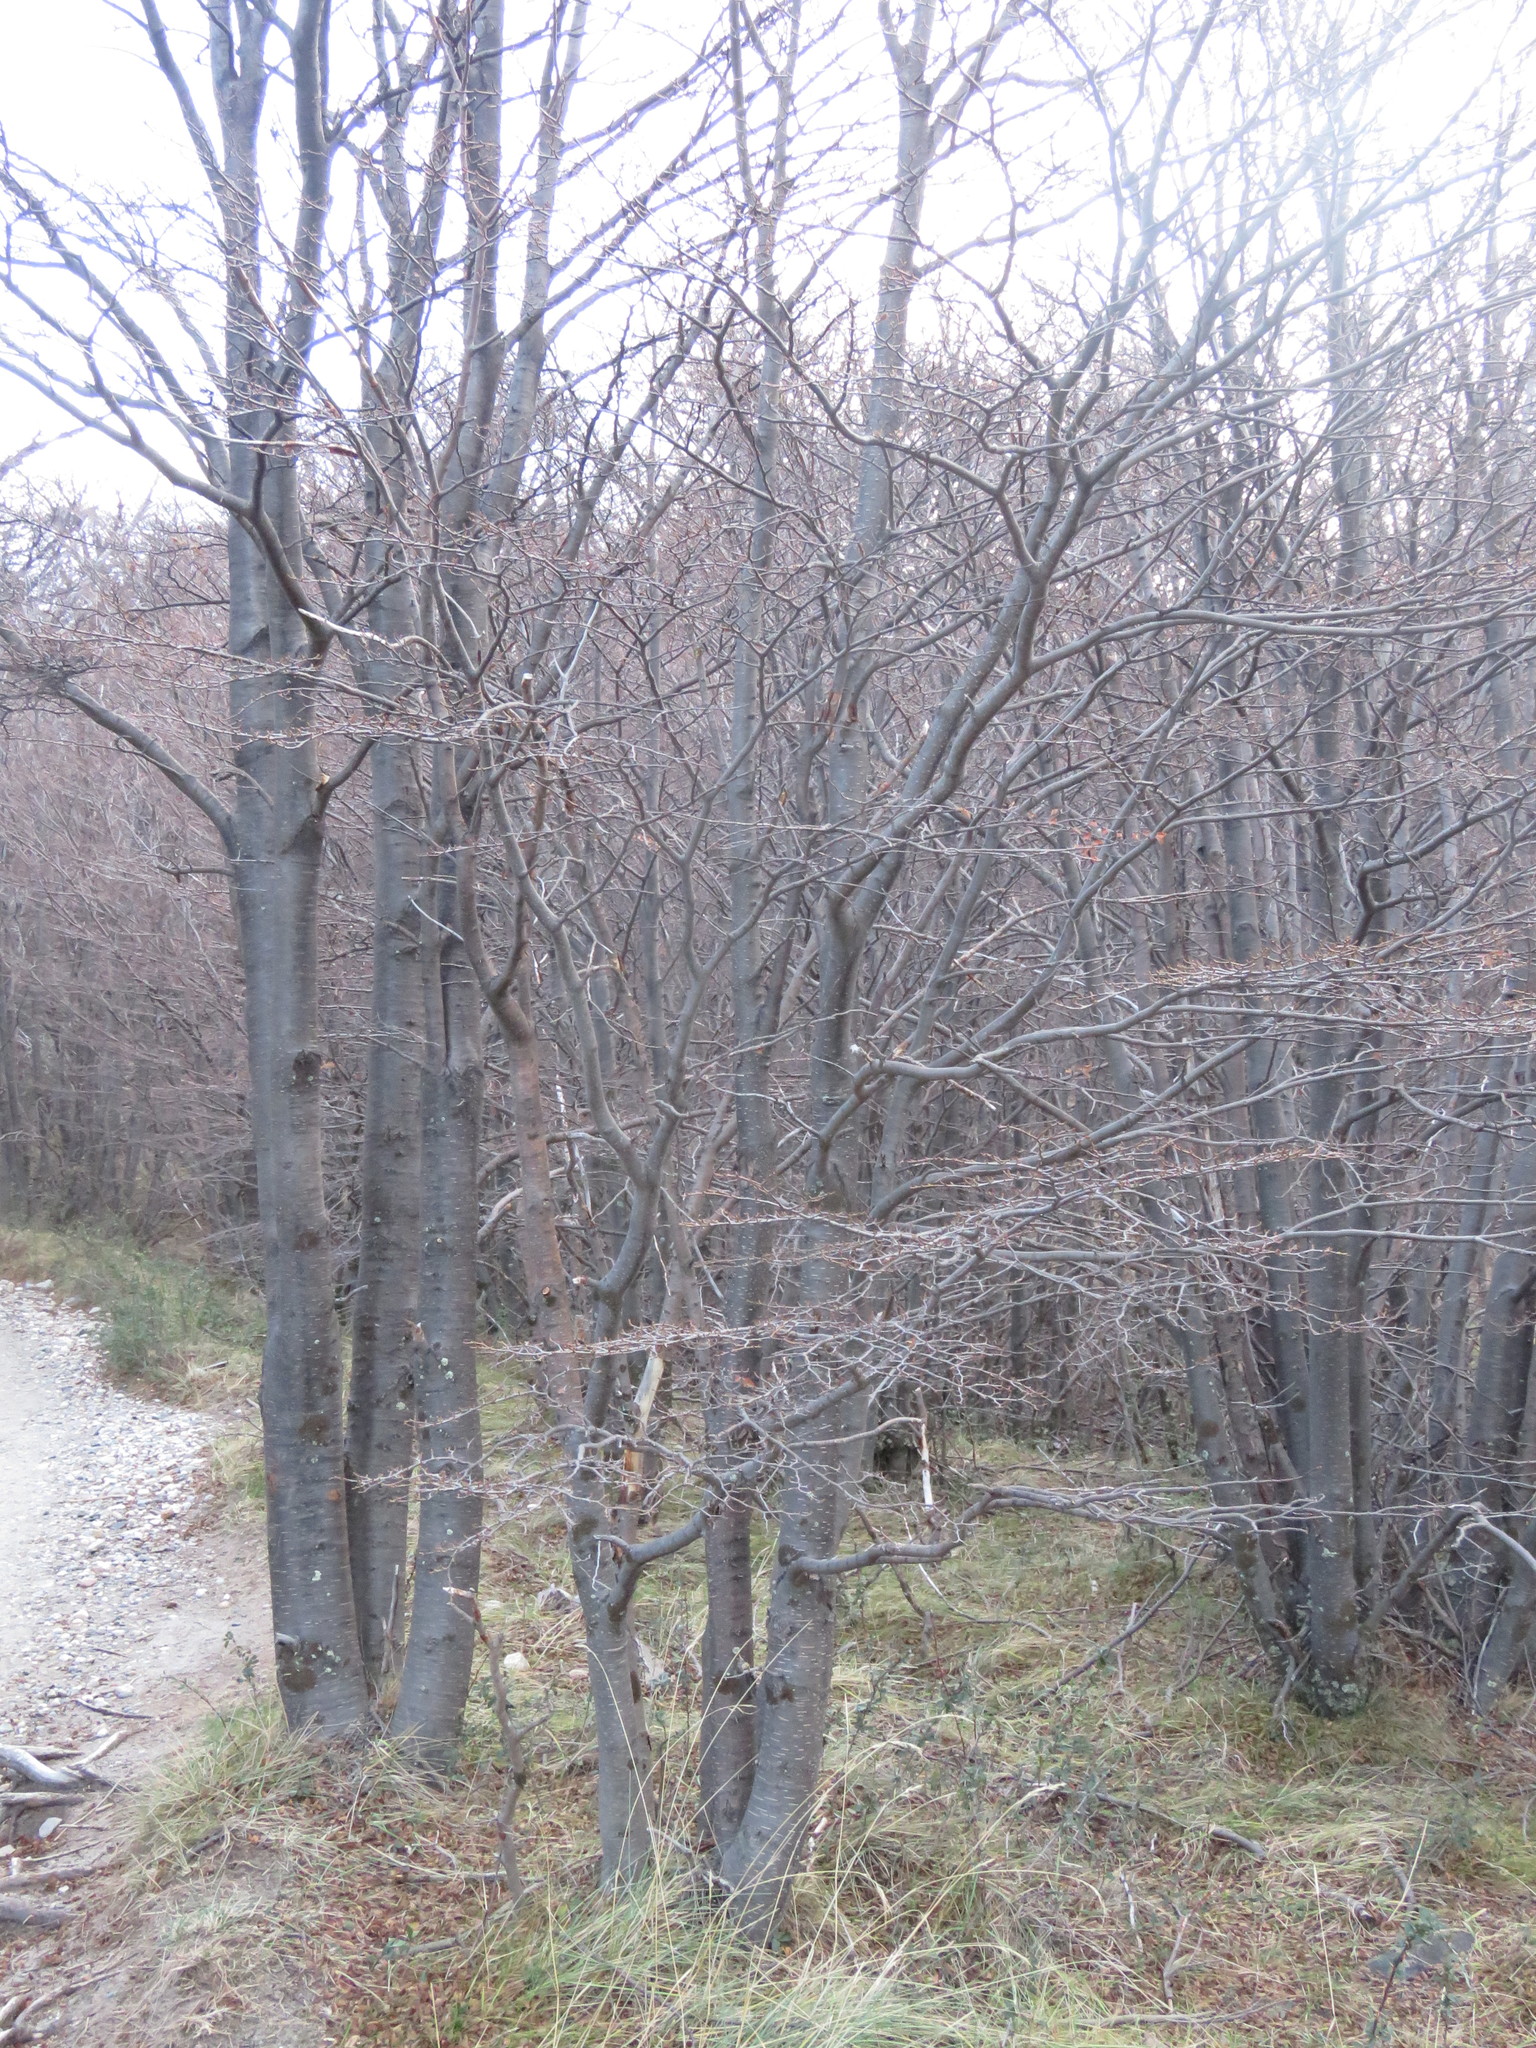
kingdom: Plantae
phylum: Tracheophyta
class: Magnoliopsida
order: Fagales
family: Nothofagaceae
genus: Nothofagus
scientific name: Nothofagus pumilio
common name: Lenga beech
